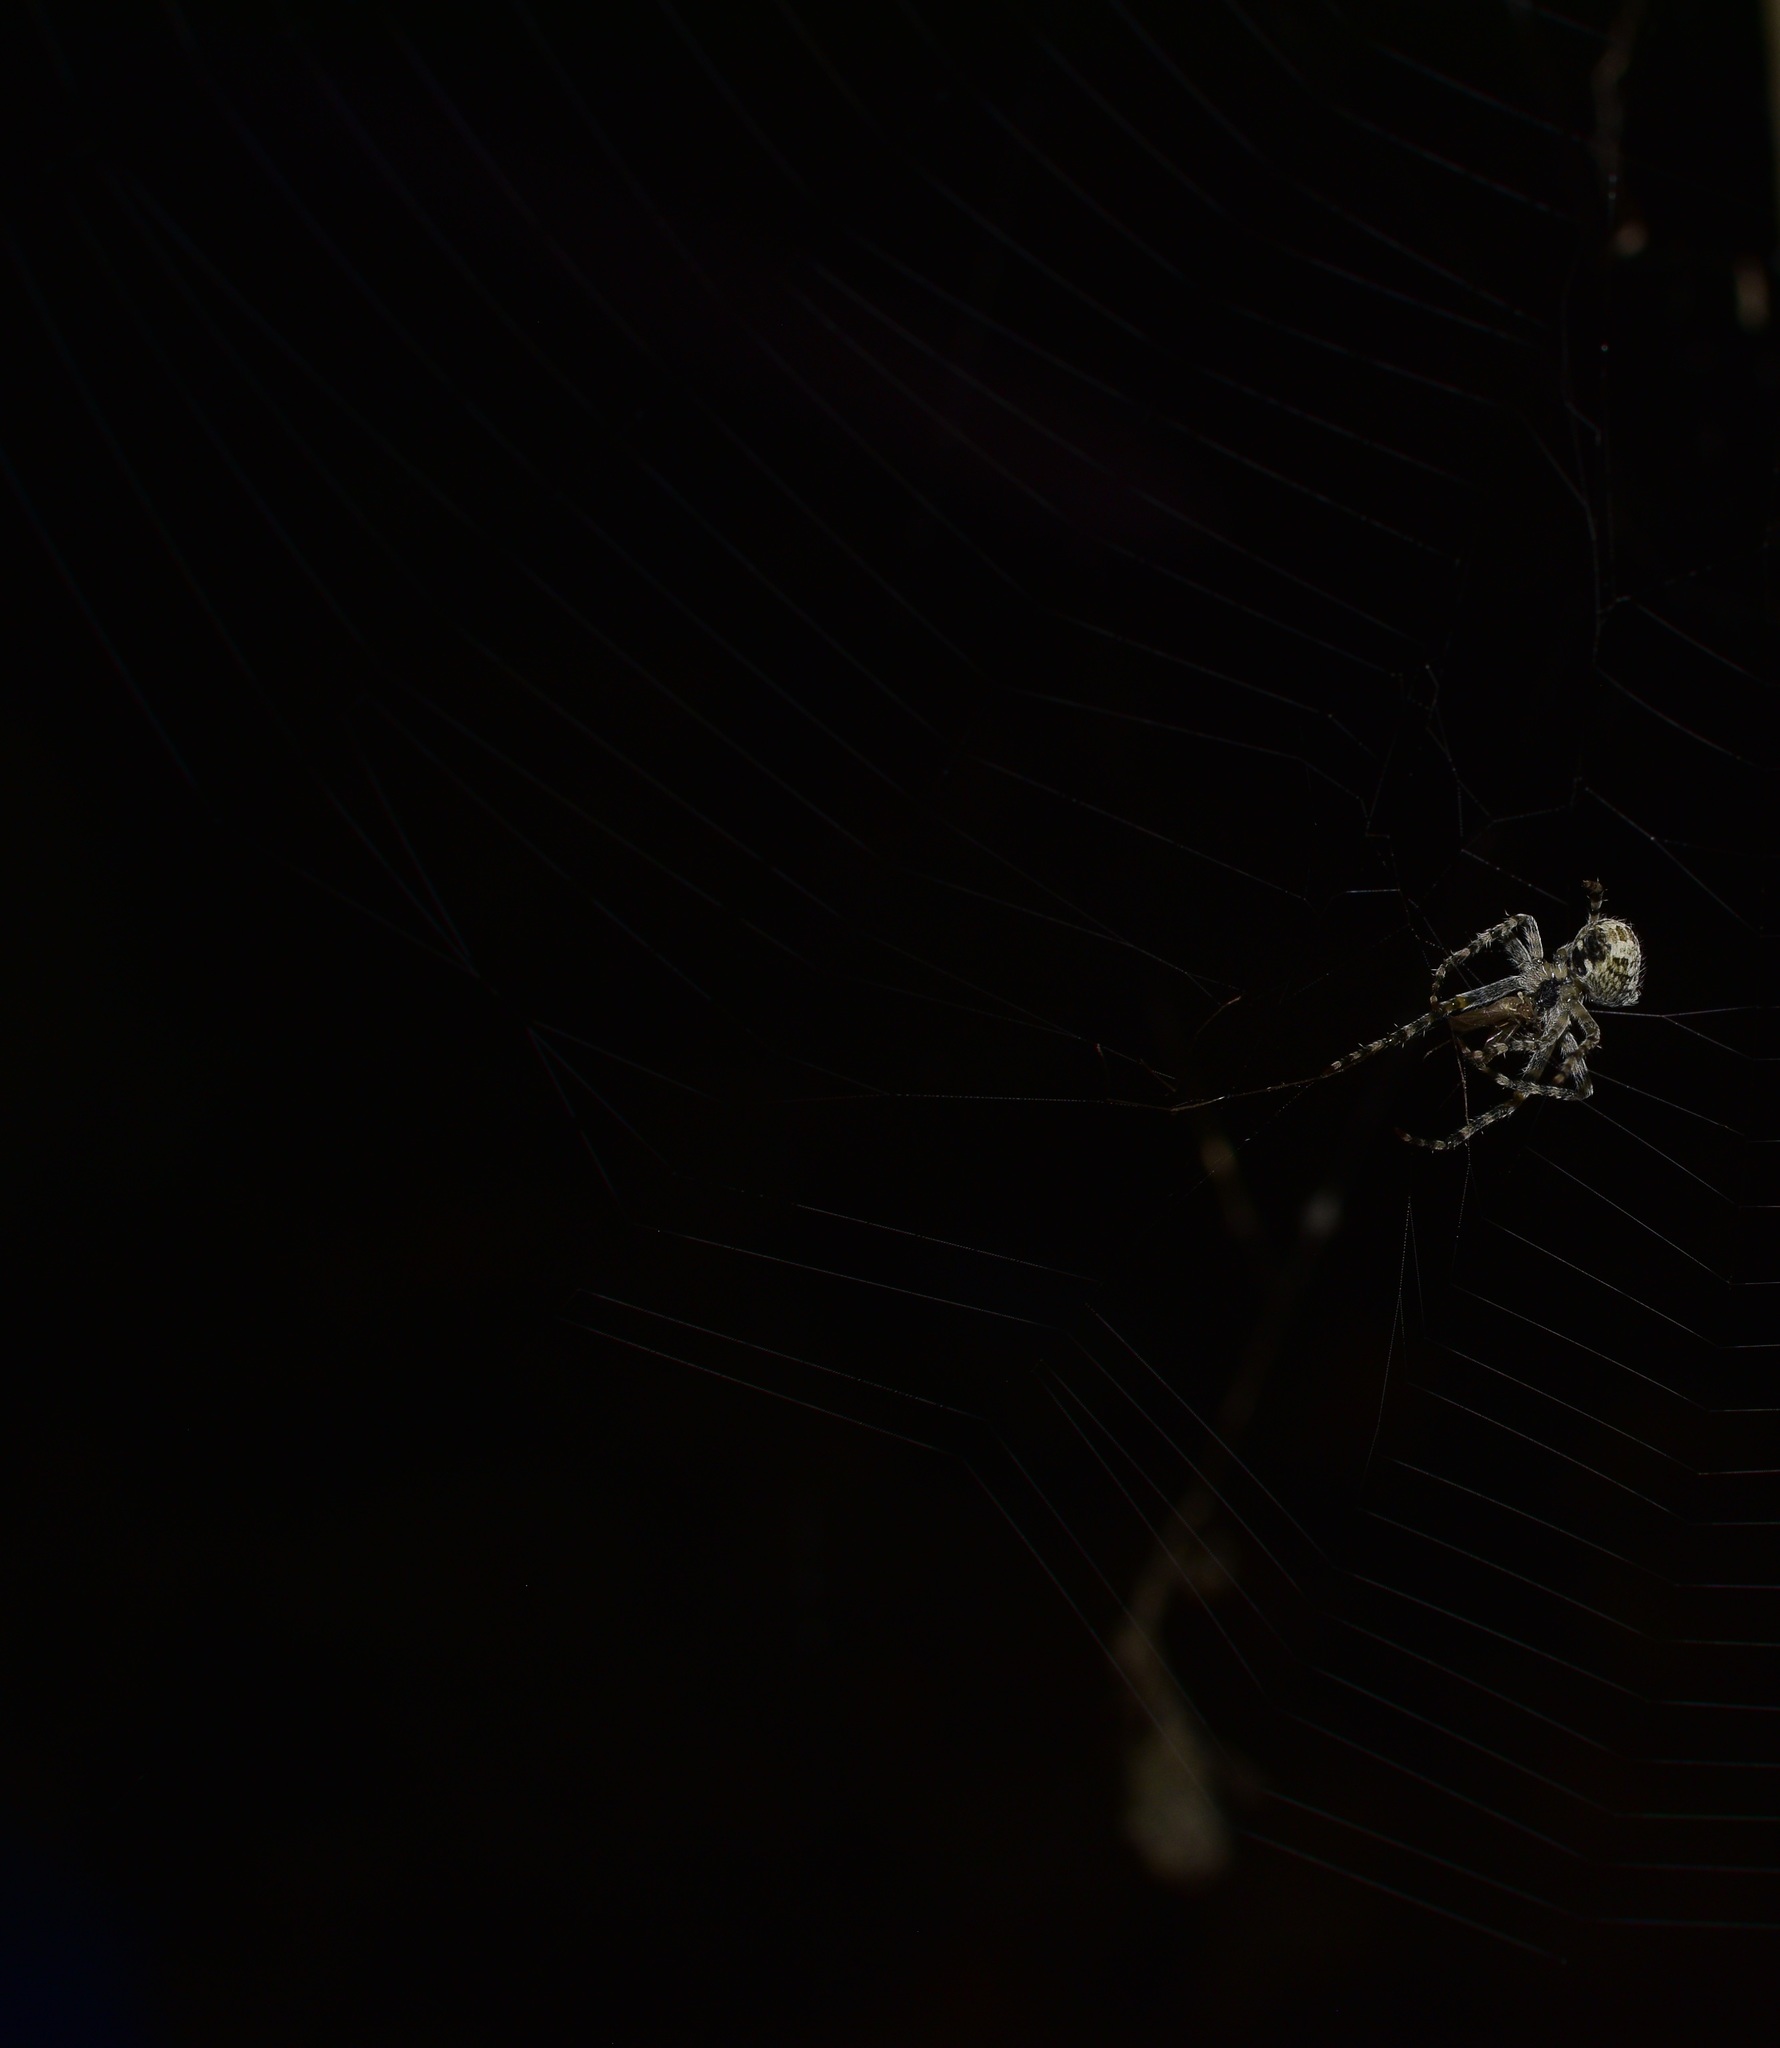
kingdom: Animalia
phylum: Arthropoda
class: Arachnida
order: Araneae
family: Araneidae
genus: Araneus
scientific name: Araneus cavaticus
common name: Barn orbweaver
